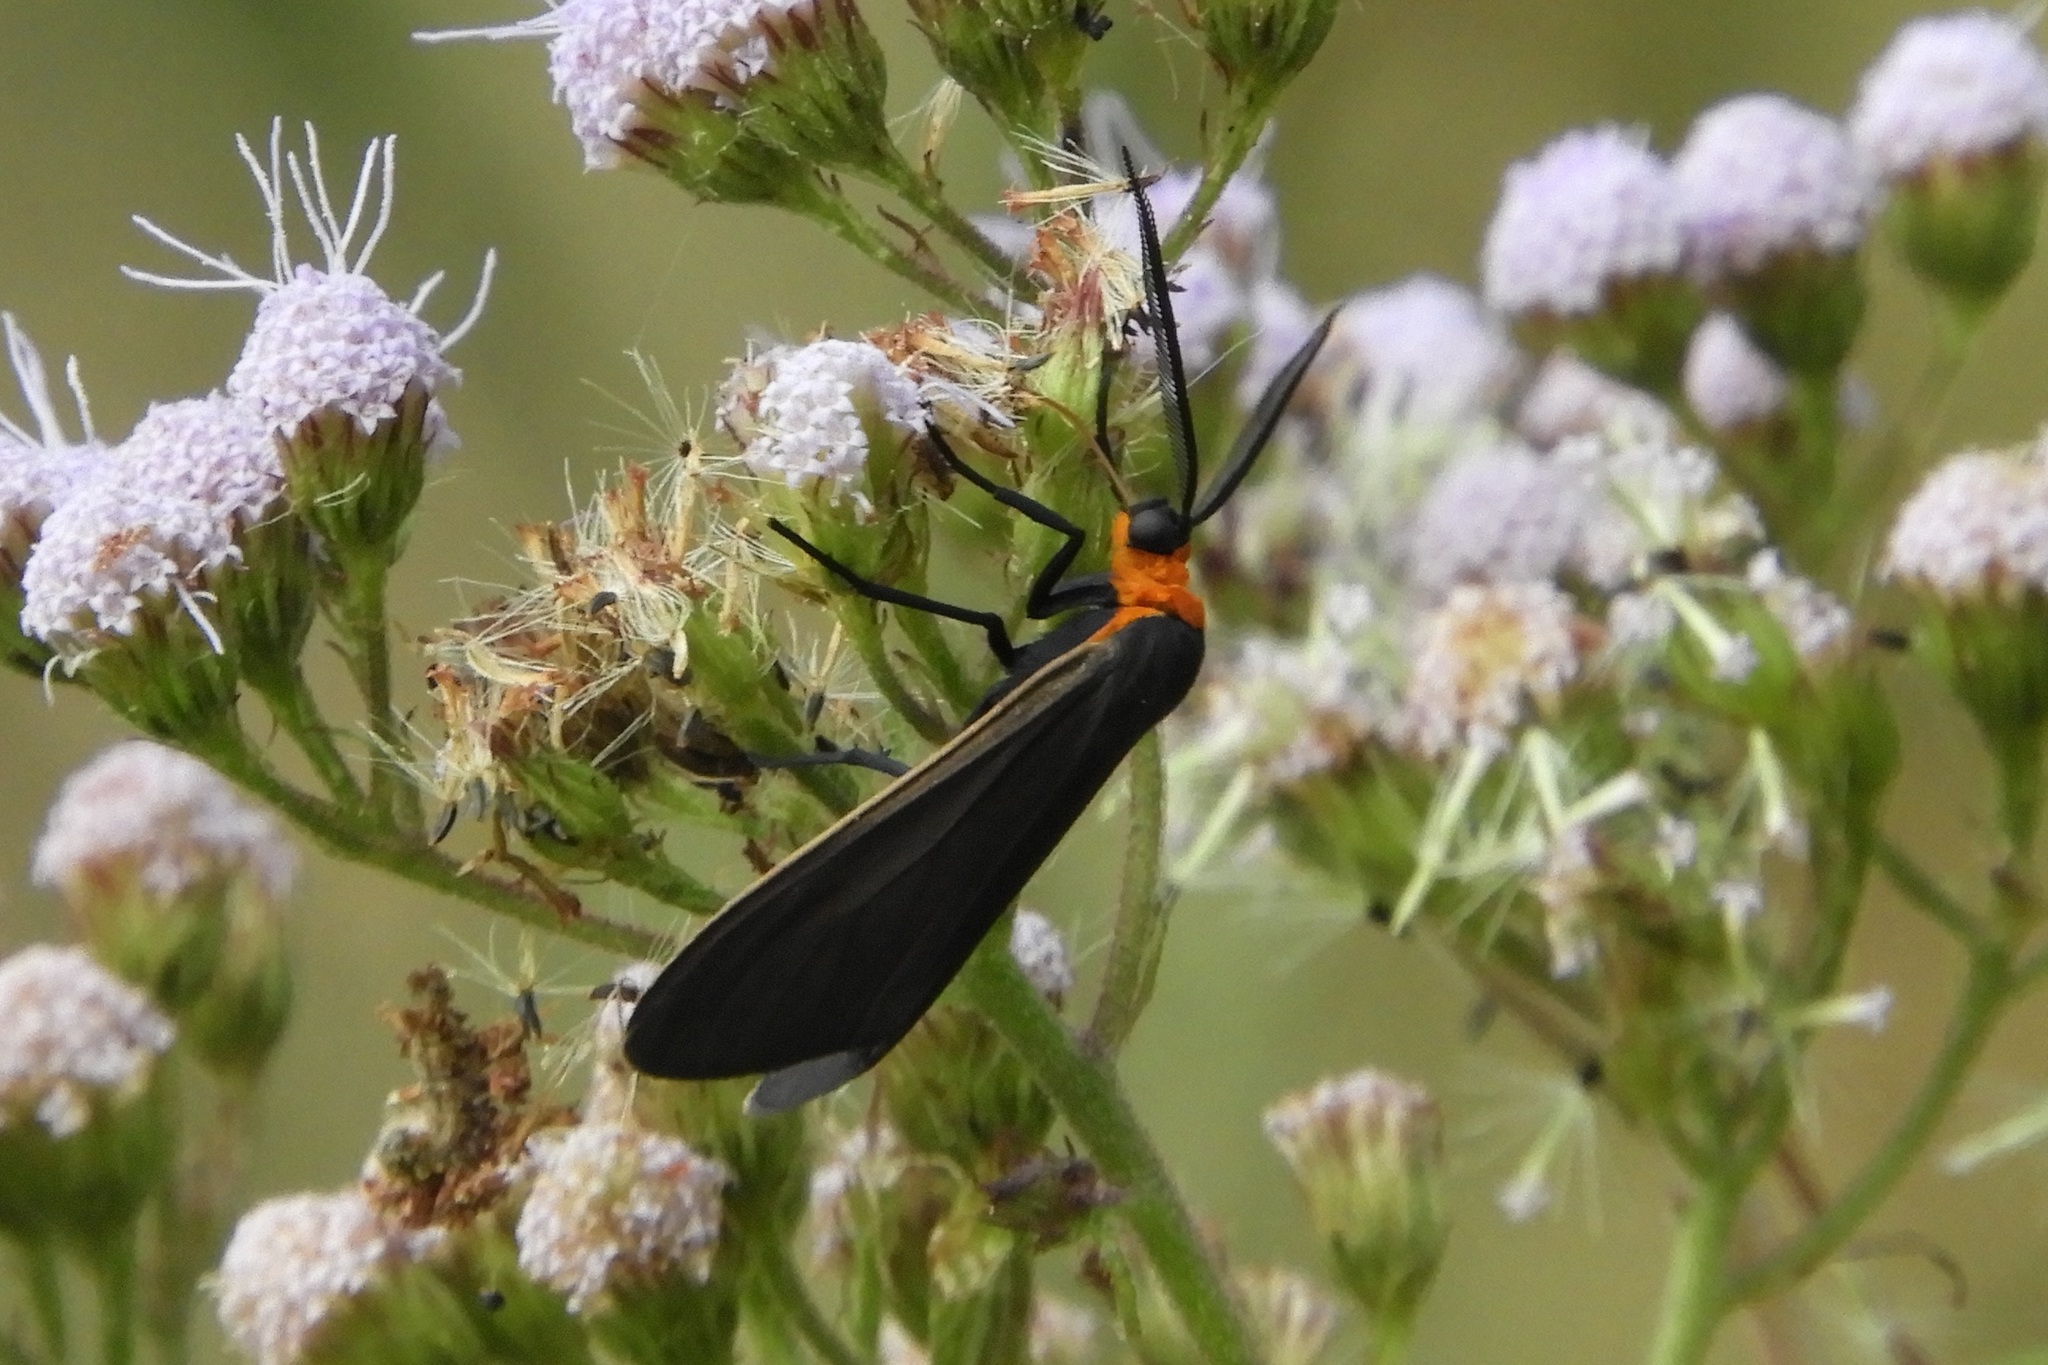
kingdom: Animalia
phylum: Arthropoda
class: Insecta
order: Lepidoptera
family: Erebidae
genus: Cisseps
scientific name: Cisseps fulvicollis
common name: Yellow-collared scape moth
